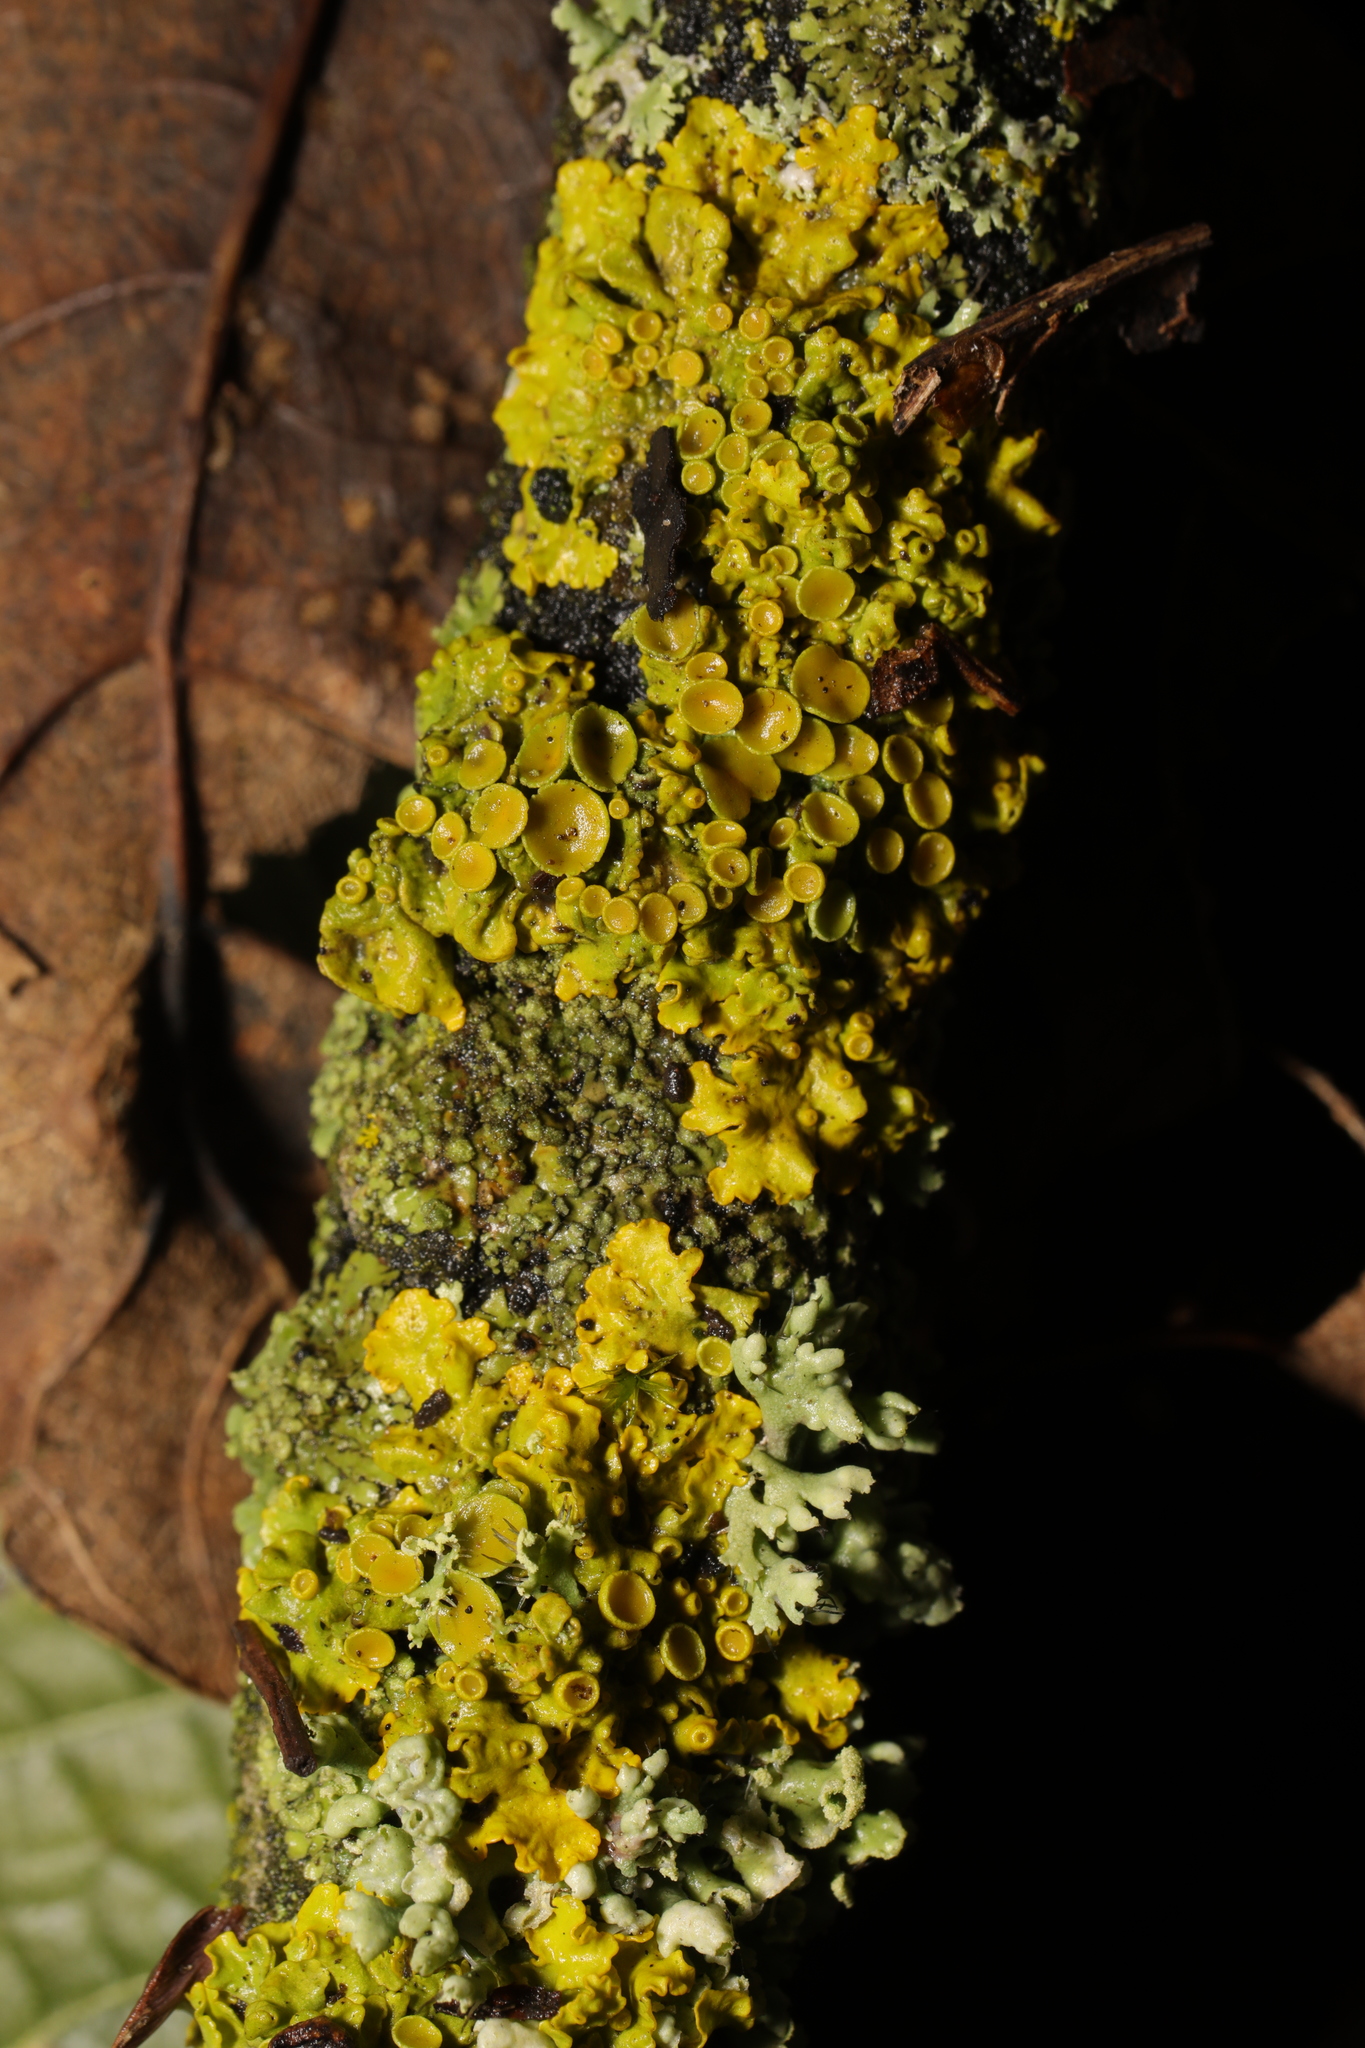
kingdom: Fungi
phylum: Ascomycota
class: Lecanoromycetes
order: Teloschistales
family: Teloschistaceae
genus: Xanthoria
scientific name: Xanthoria parietina
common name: Common orange lichen
